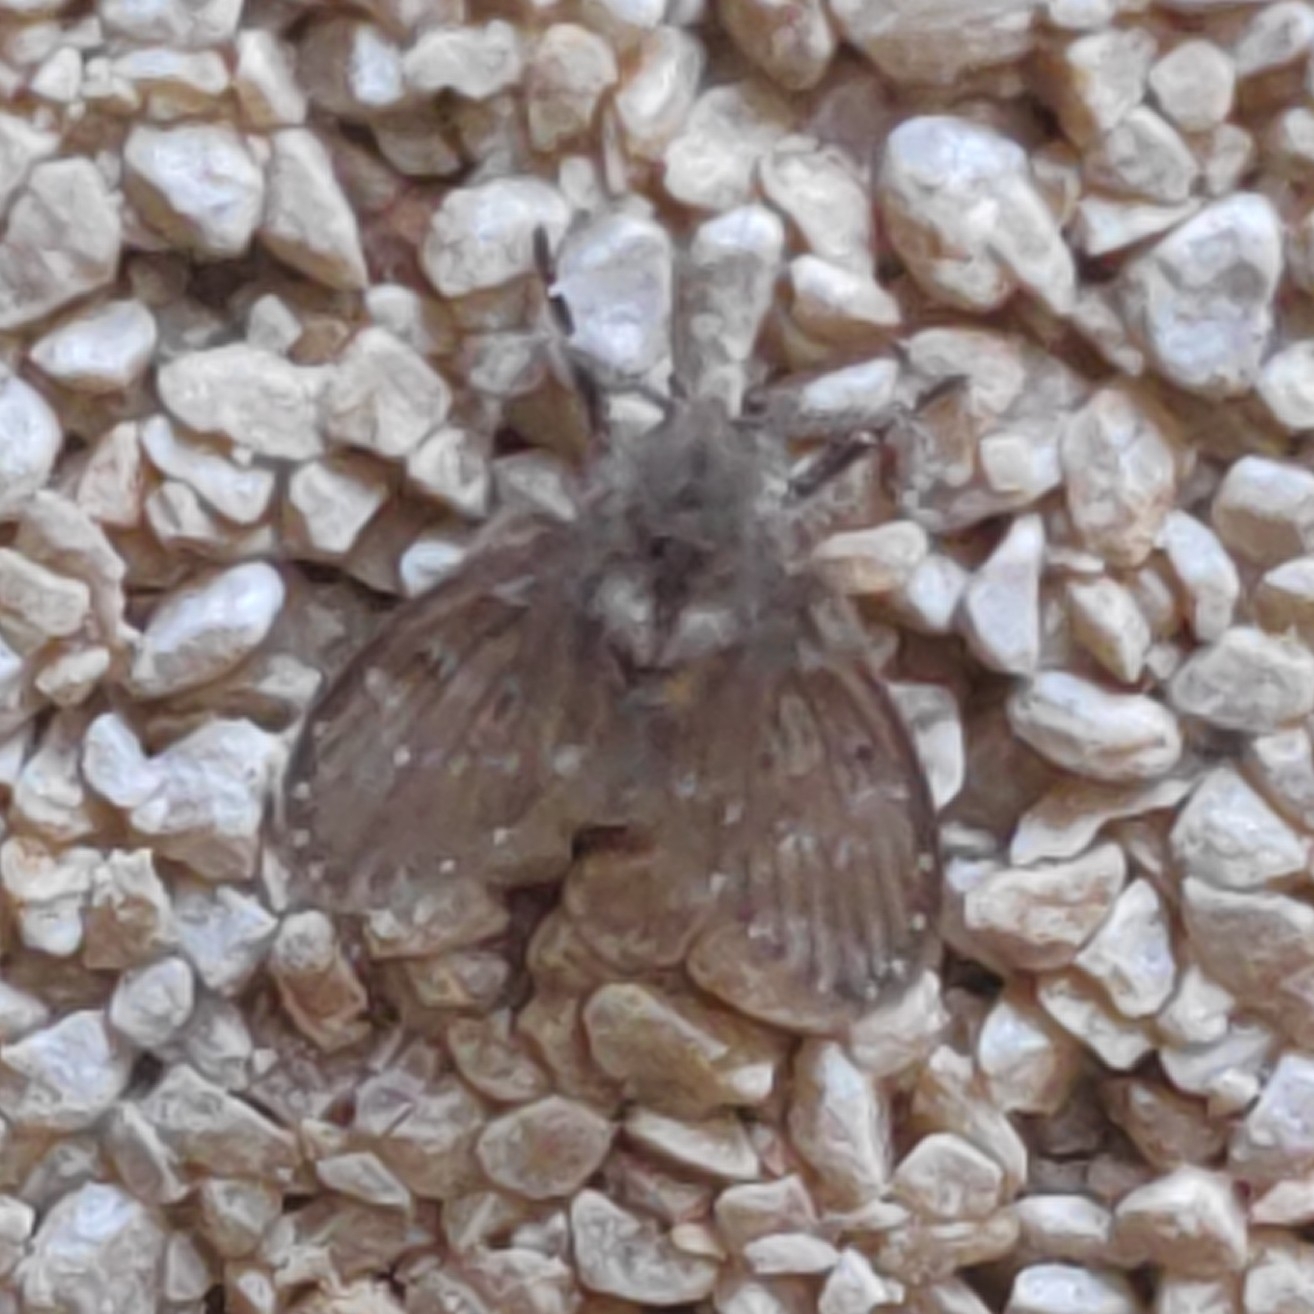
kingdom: Animalia
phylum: Arthropoda
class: Insecta
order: Diptera
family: Psychodidae
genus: Clogmia
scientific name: Clogmia albipunctatus
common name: White-spotted moth fly
